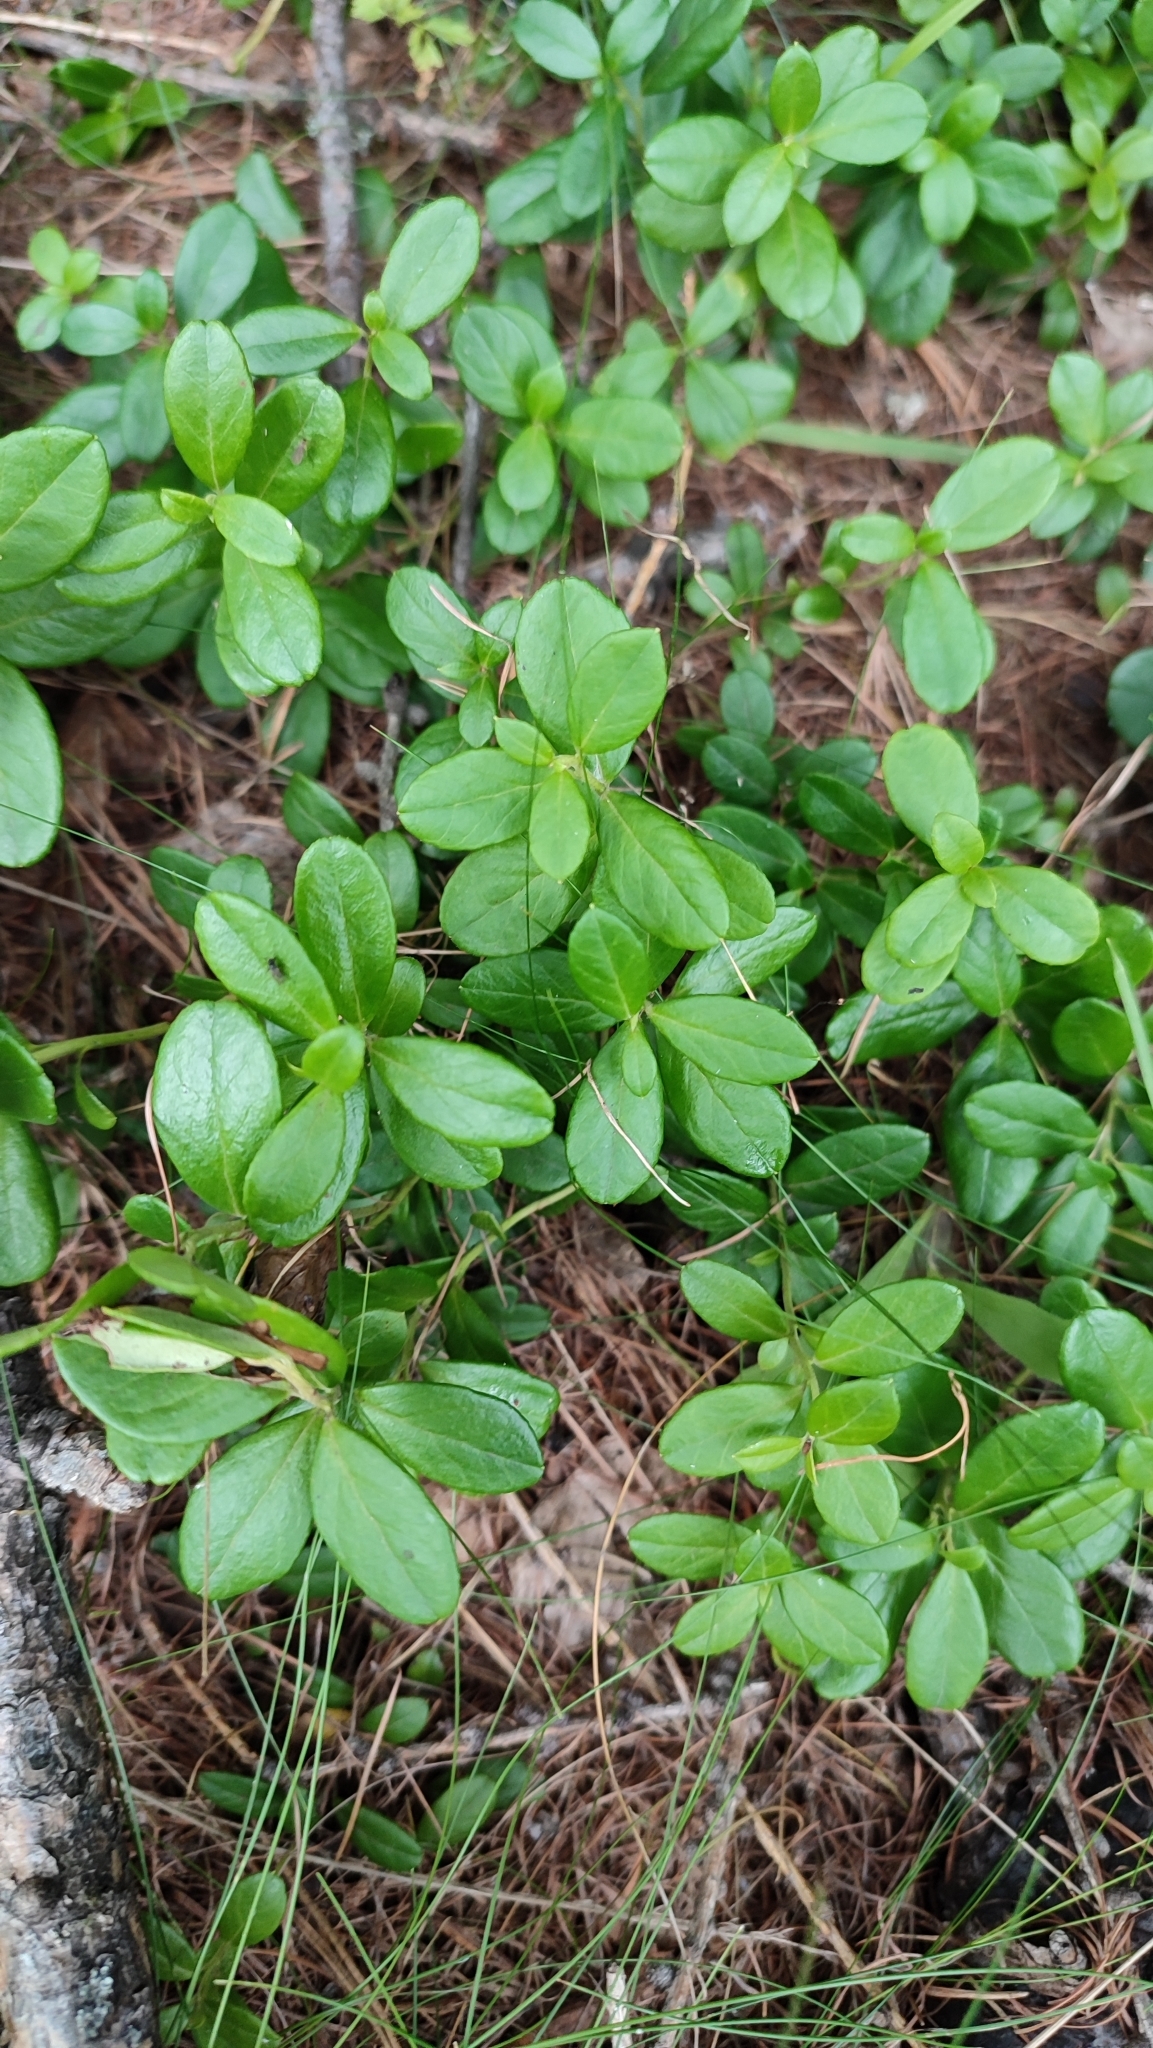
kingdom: Plantae
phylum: Tracheophyta
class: Magnoliopsida
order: Ericales
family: Ericaceae
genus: Vaccinium
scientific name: Vaccinium vitis-idaea
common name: Cowberry
